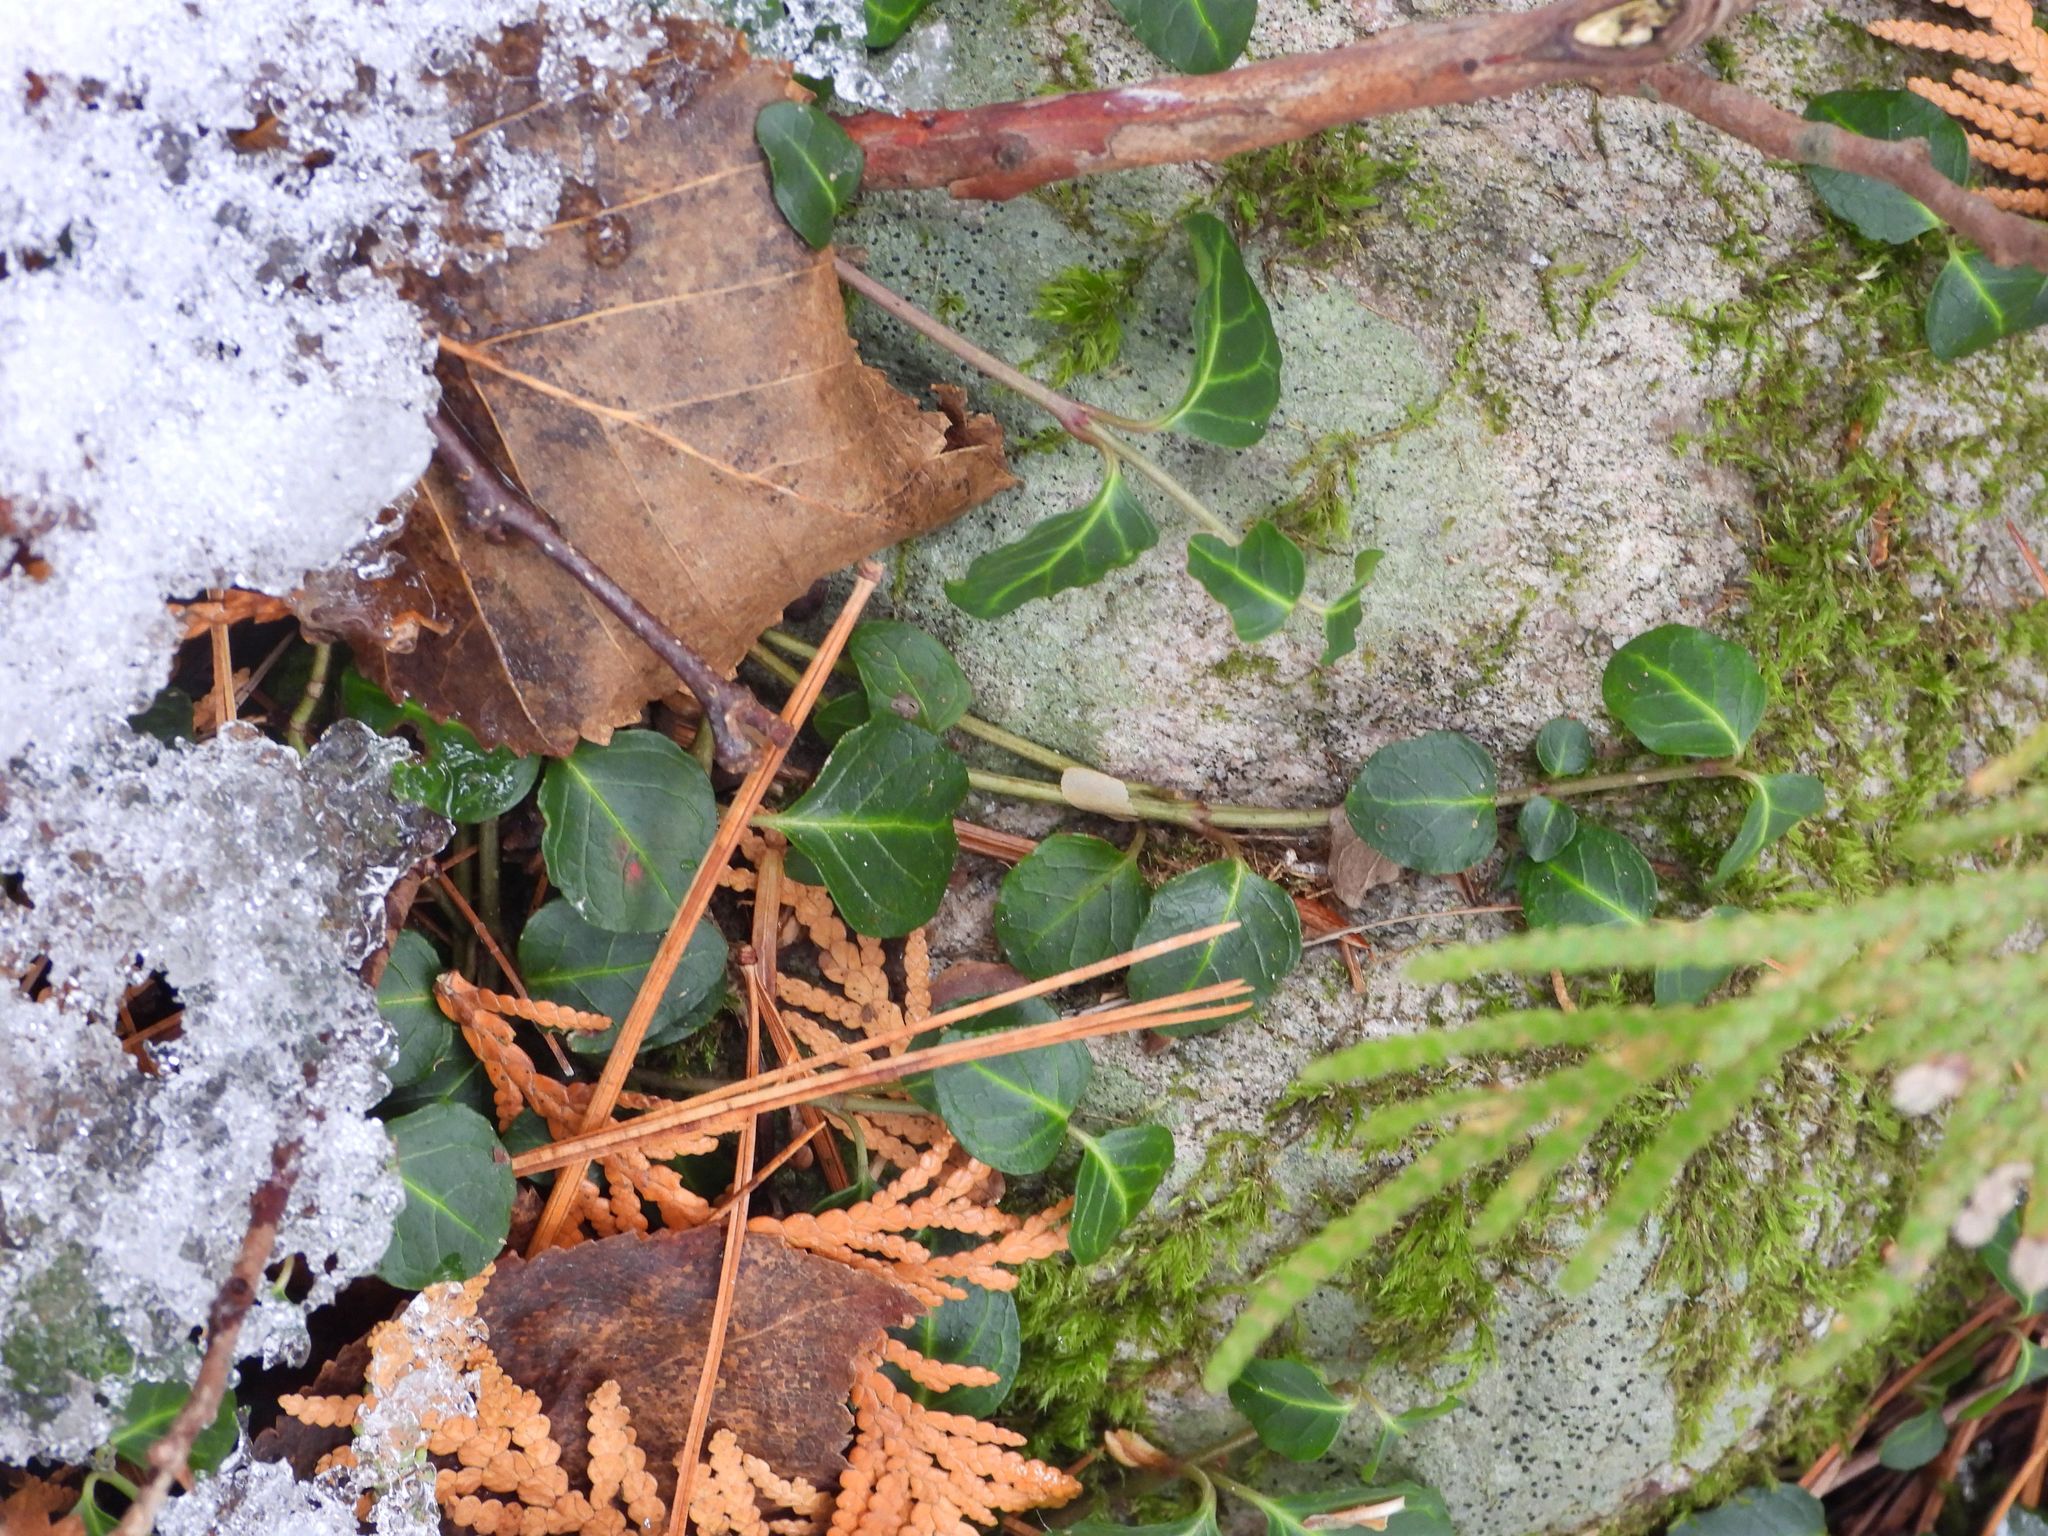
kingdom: Plantae
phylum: Tracheophyta
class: Magnoliopsida
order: Gentianales
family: Rubiaceae
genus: Mitchella
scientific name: Mitchella repens
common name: Partridge-berry
